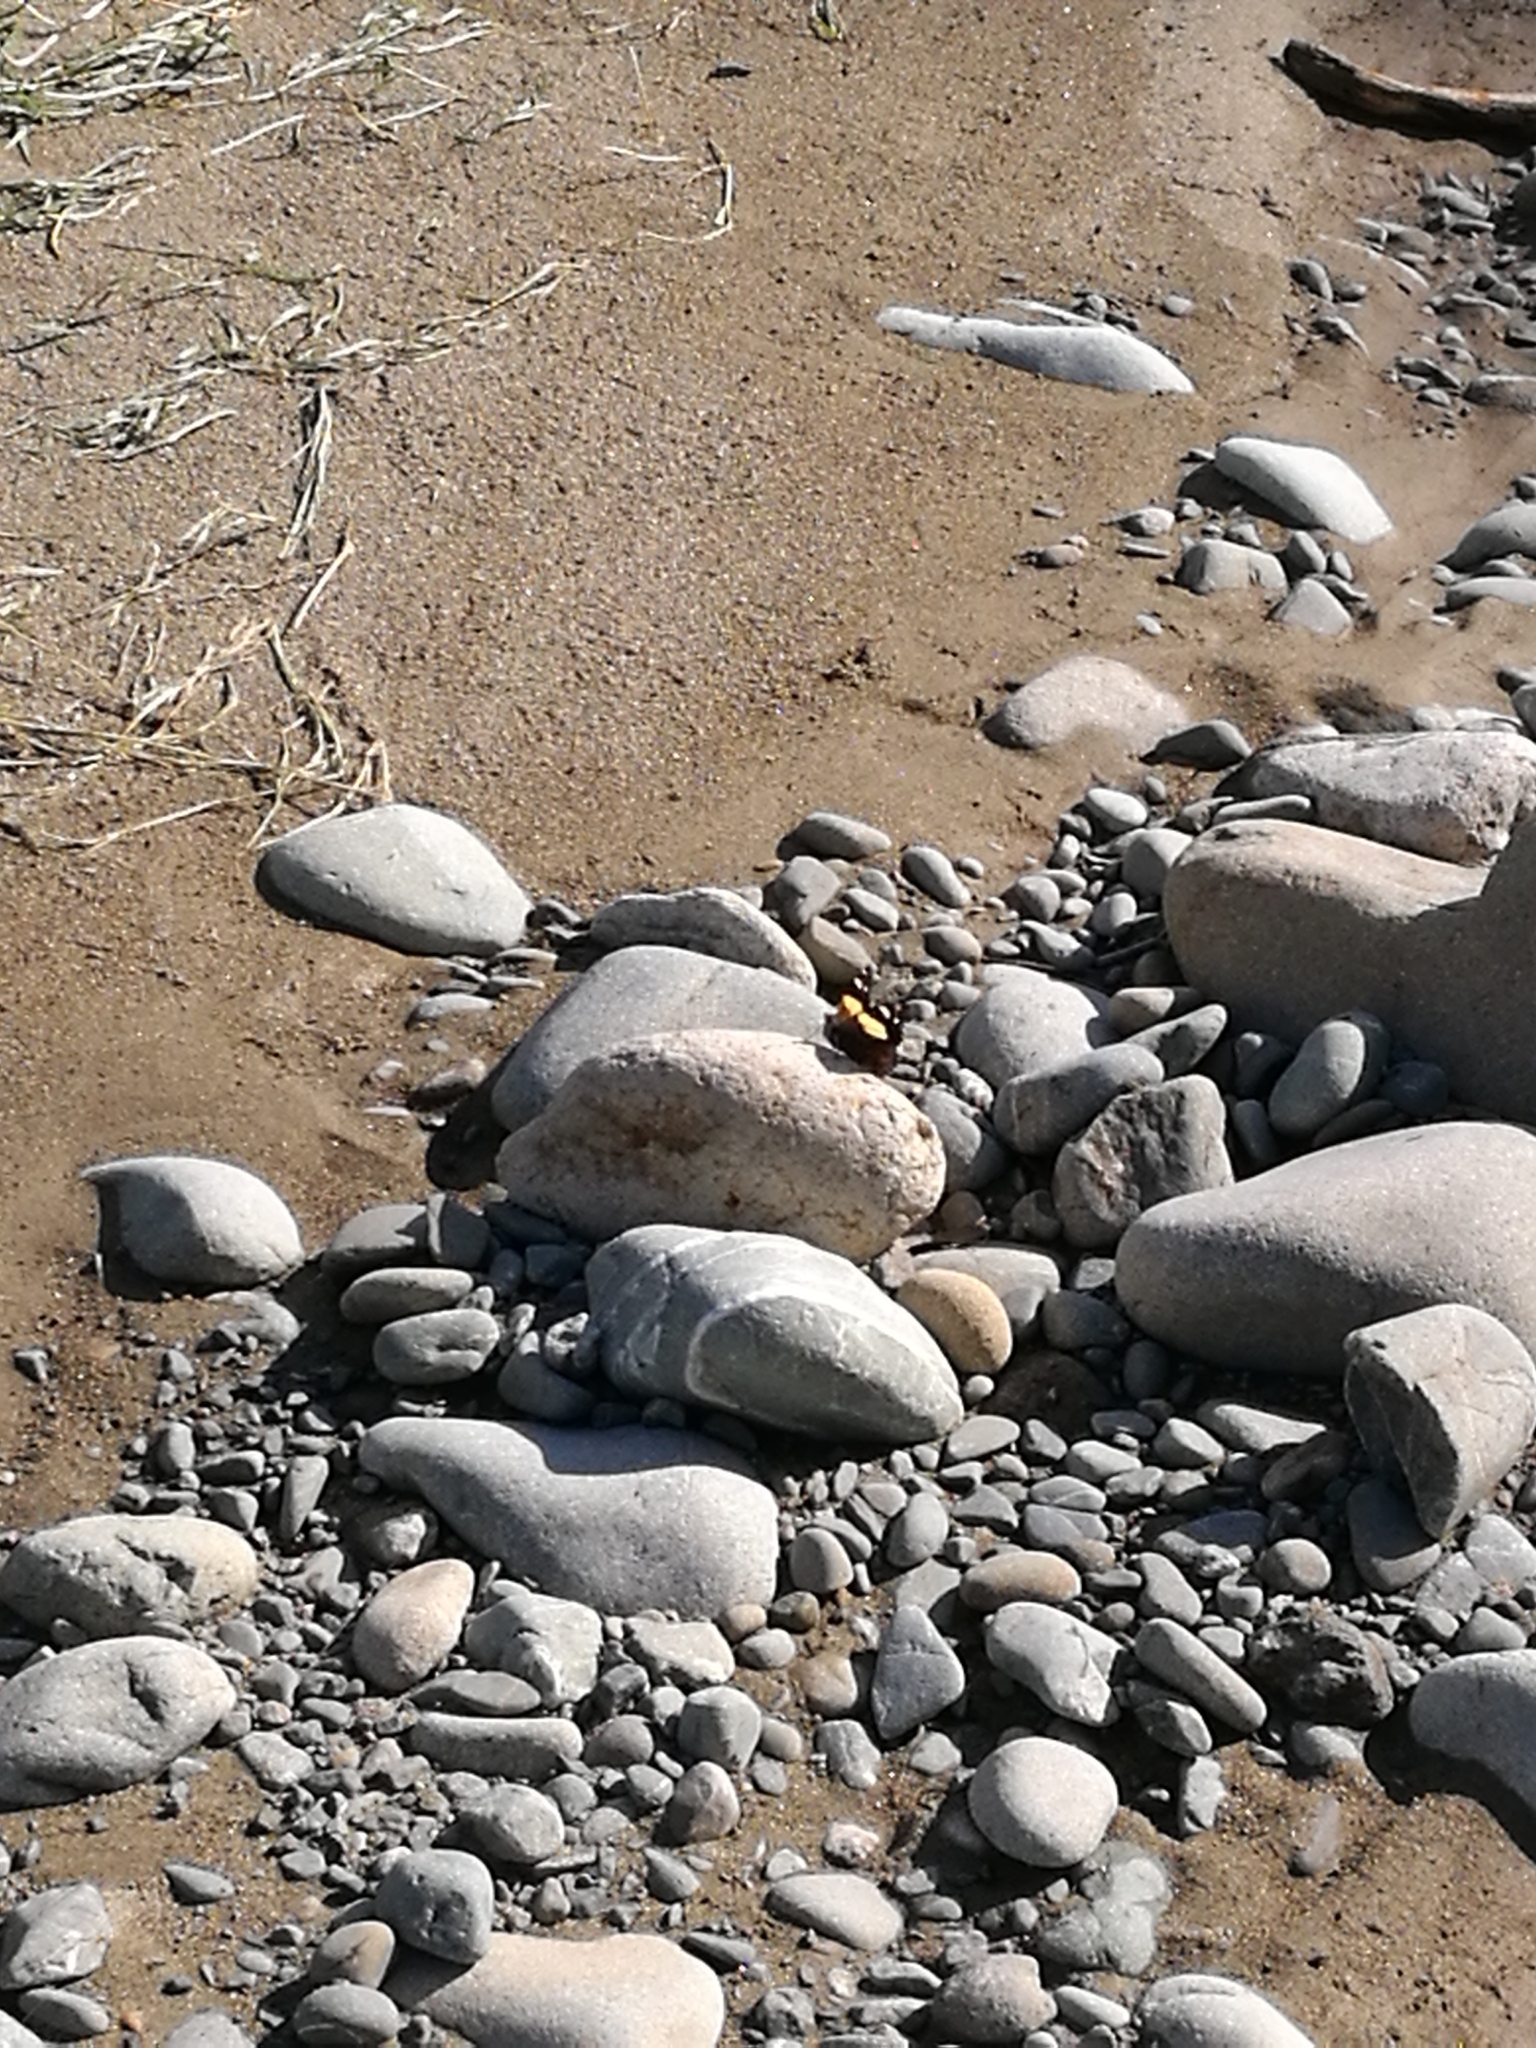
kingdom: Animalia
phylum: Arthropoda
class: Insecta
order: Lepidoptera
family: Nymphalidae
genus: Vanessa
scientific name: Vanessa itea
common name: Yellow admiral
